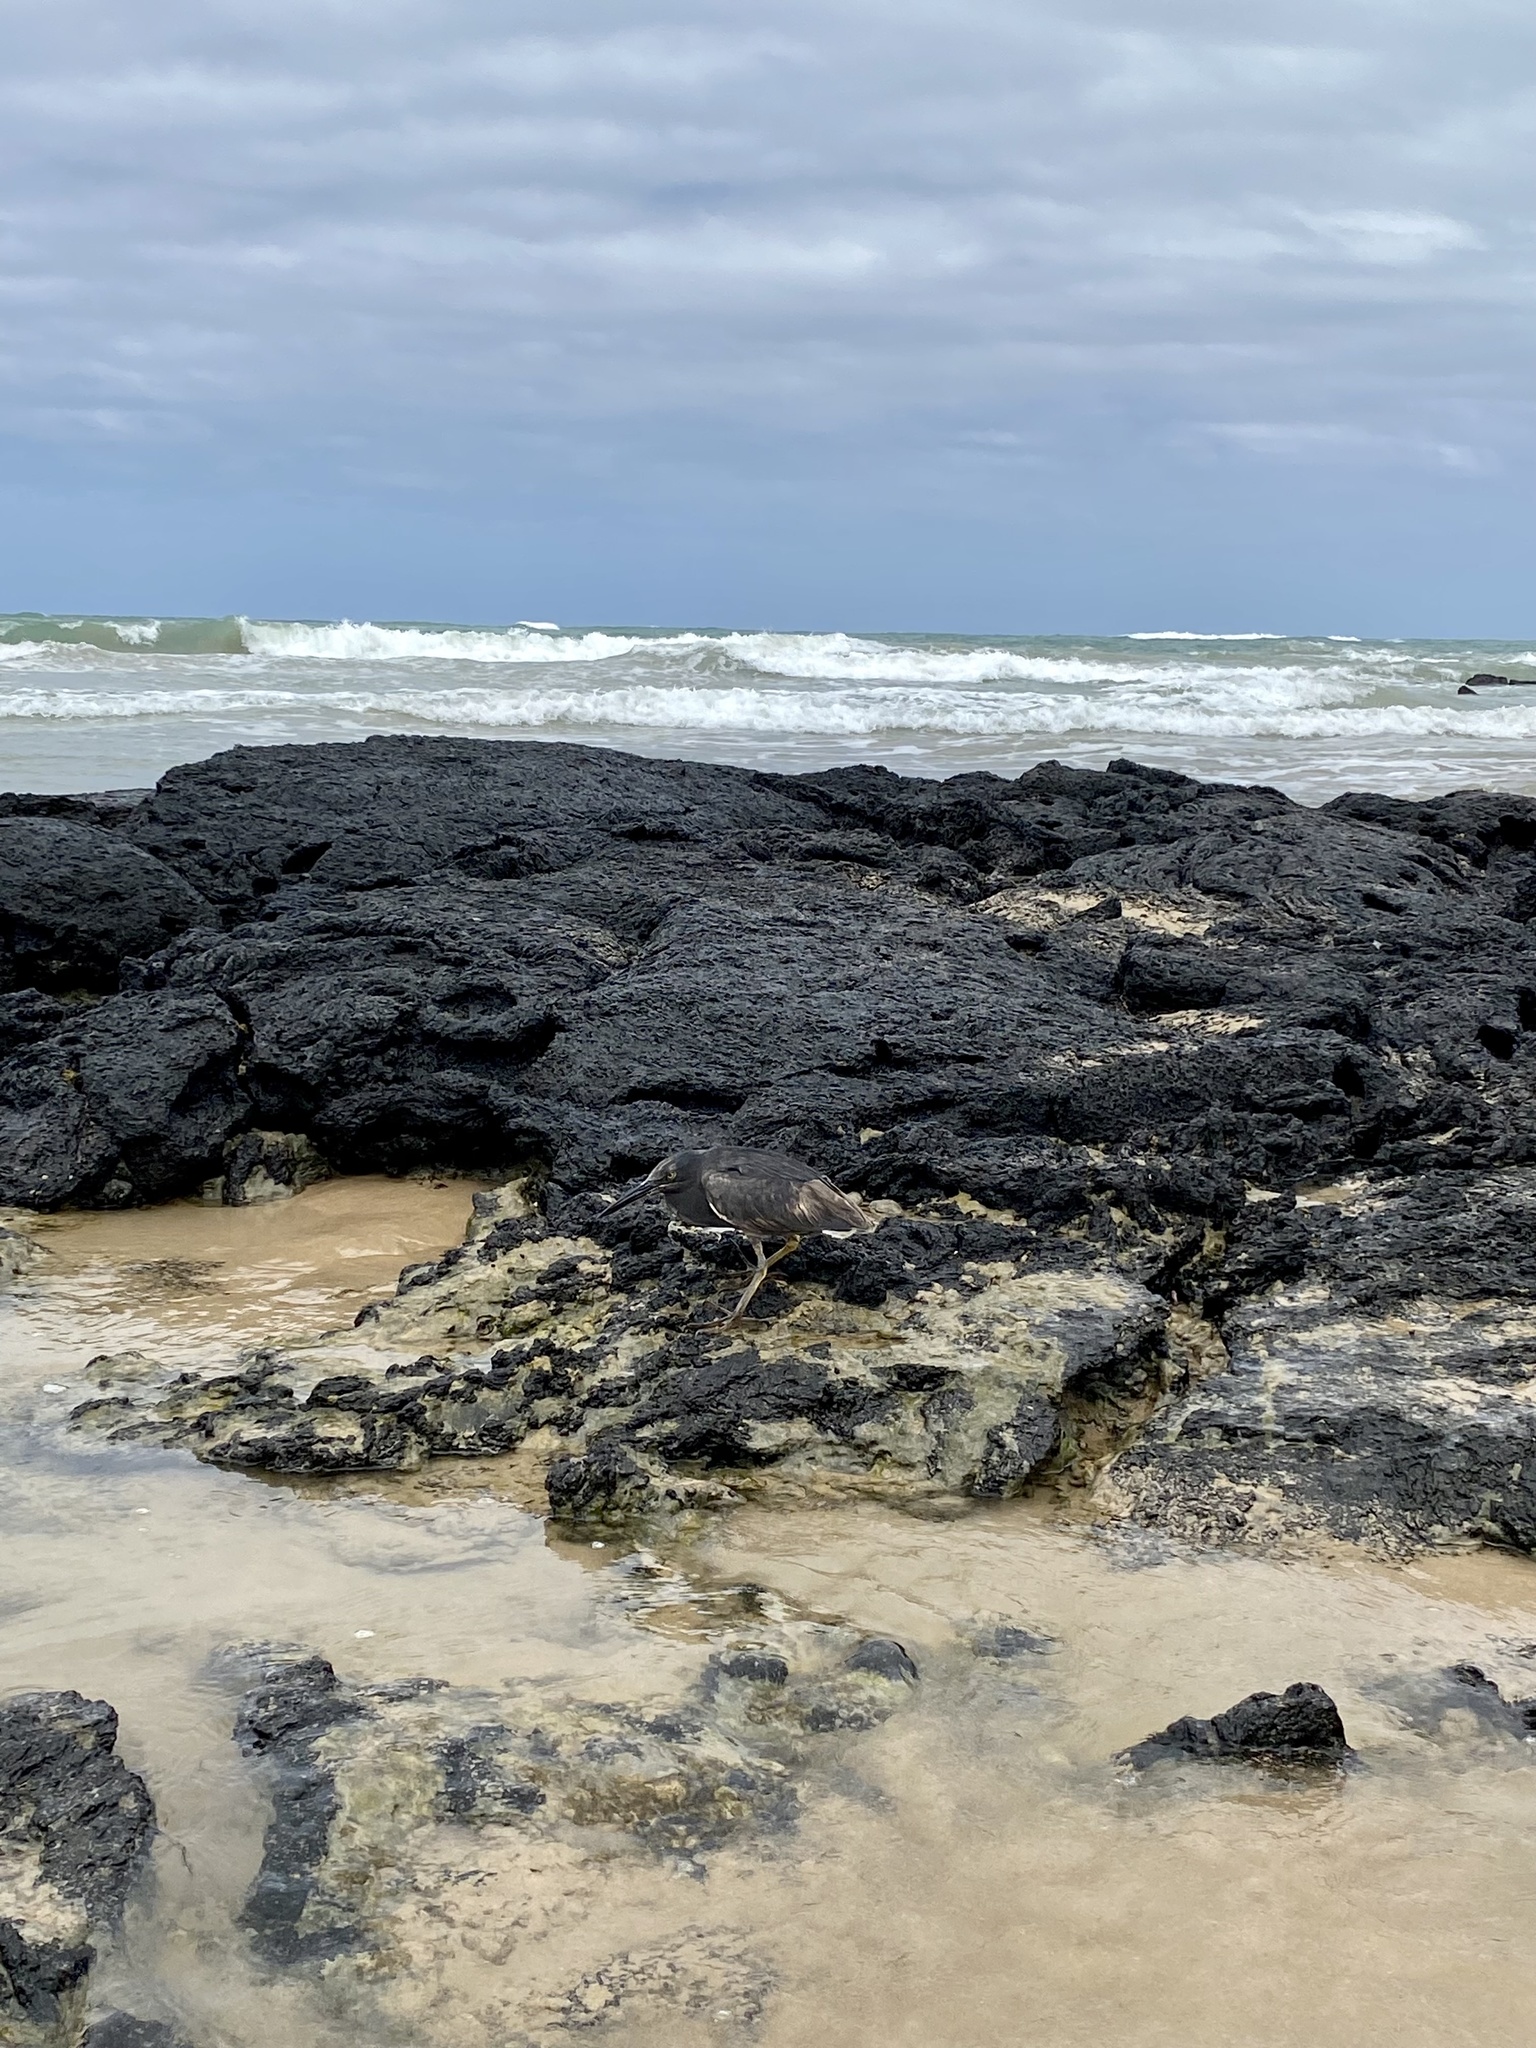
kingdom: Animalia
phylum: Chordata
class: Aves
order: Pelecaniformes
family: Ardeidae
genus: Butorides
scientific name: Butorides striata
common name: Striated heron
